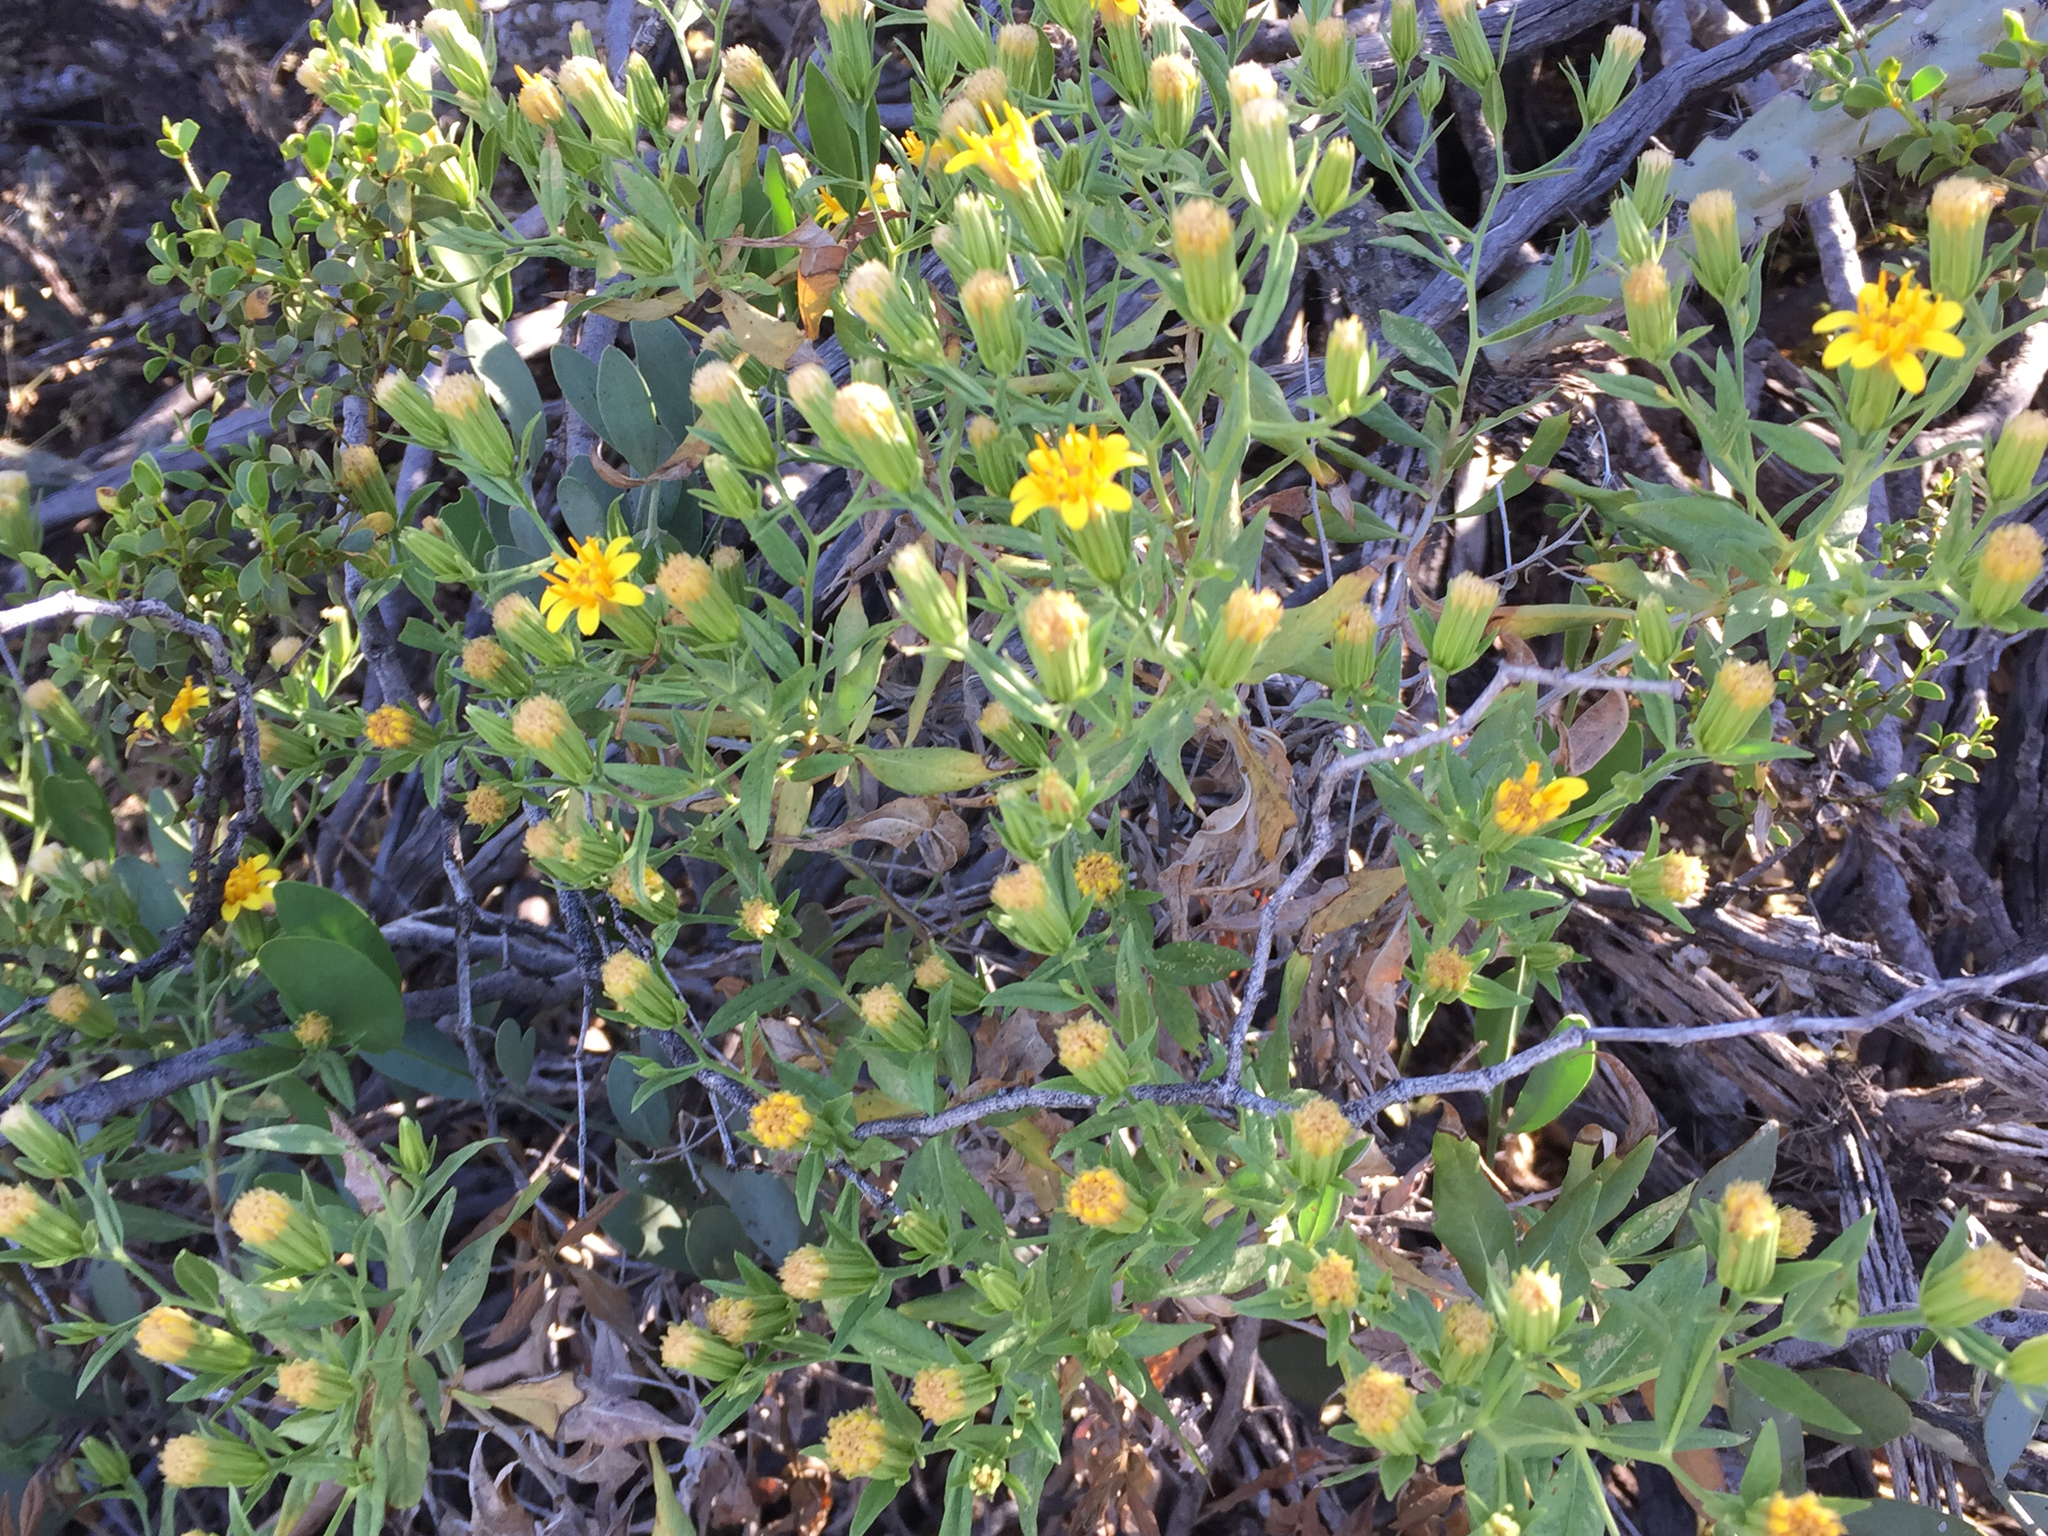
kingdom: Plantae
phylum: Tracheophyta
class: Magnoliopsida
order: Asterales
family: Asteraceae
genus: Trixis
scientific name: Trixis californica
